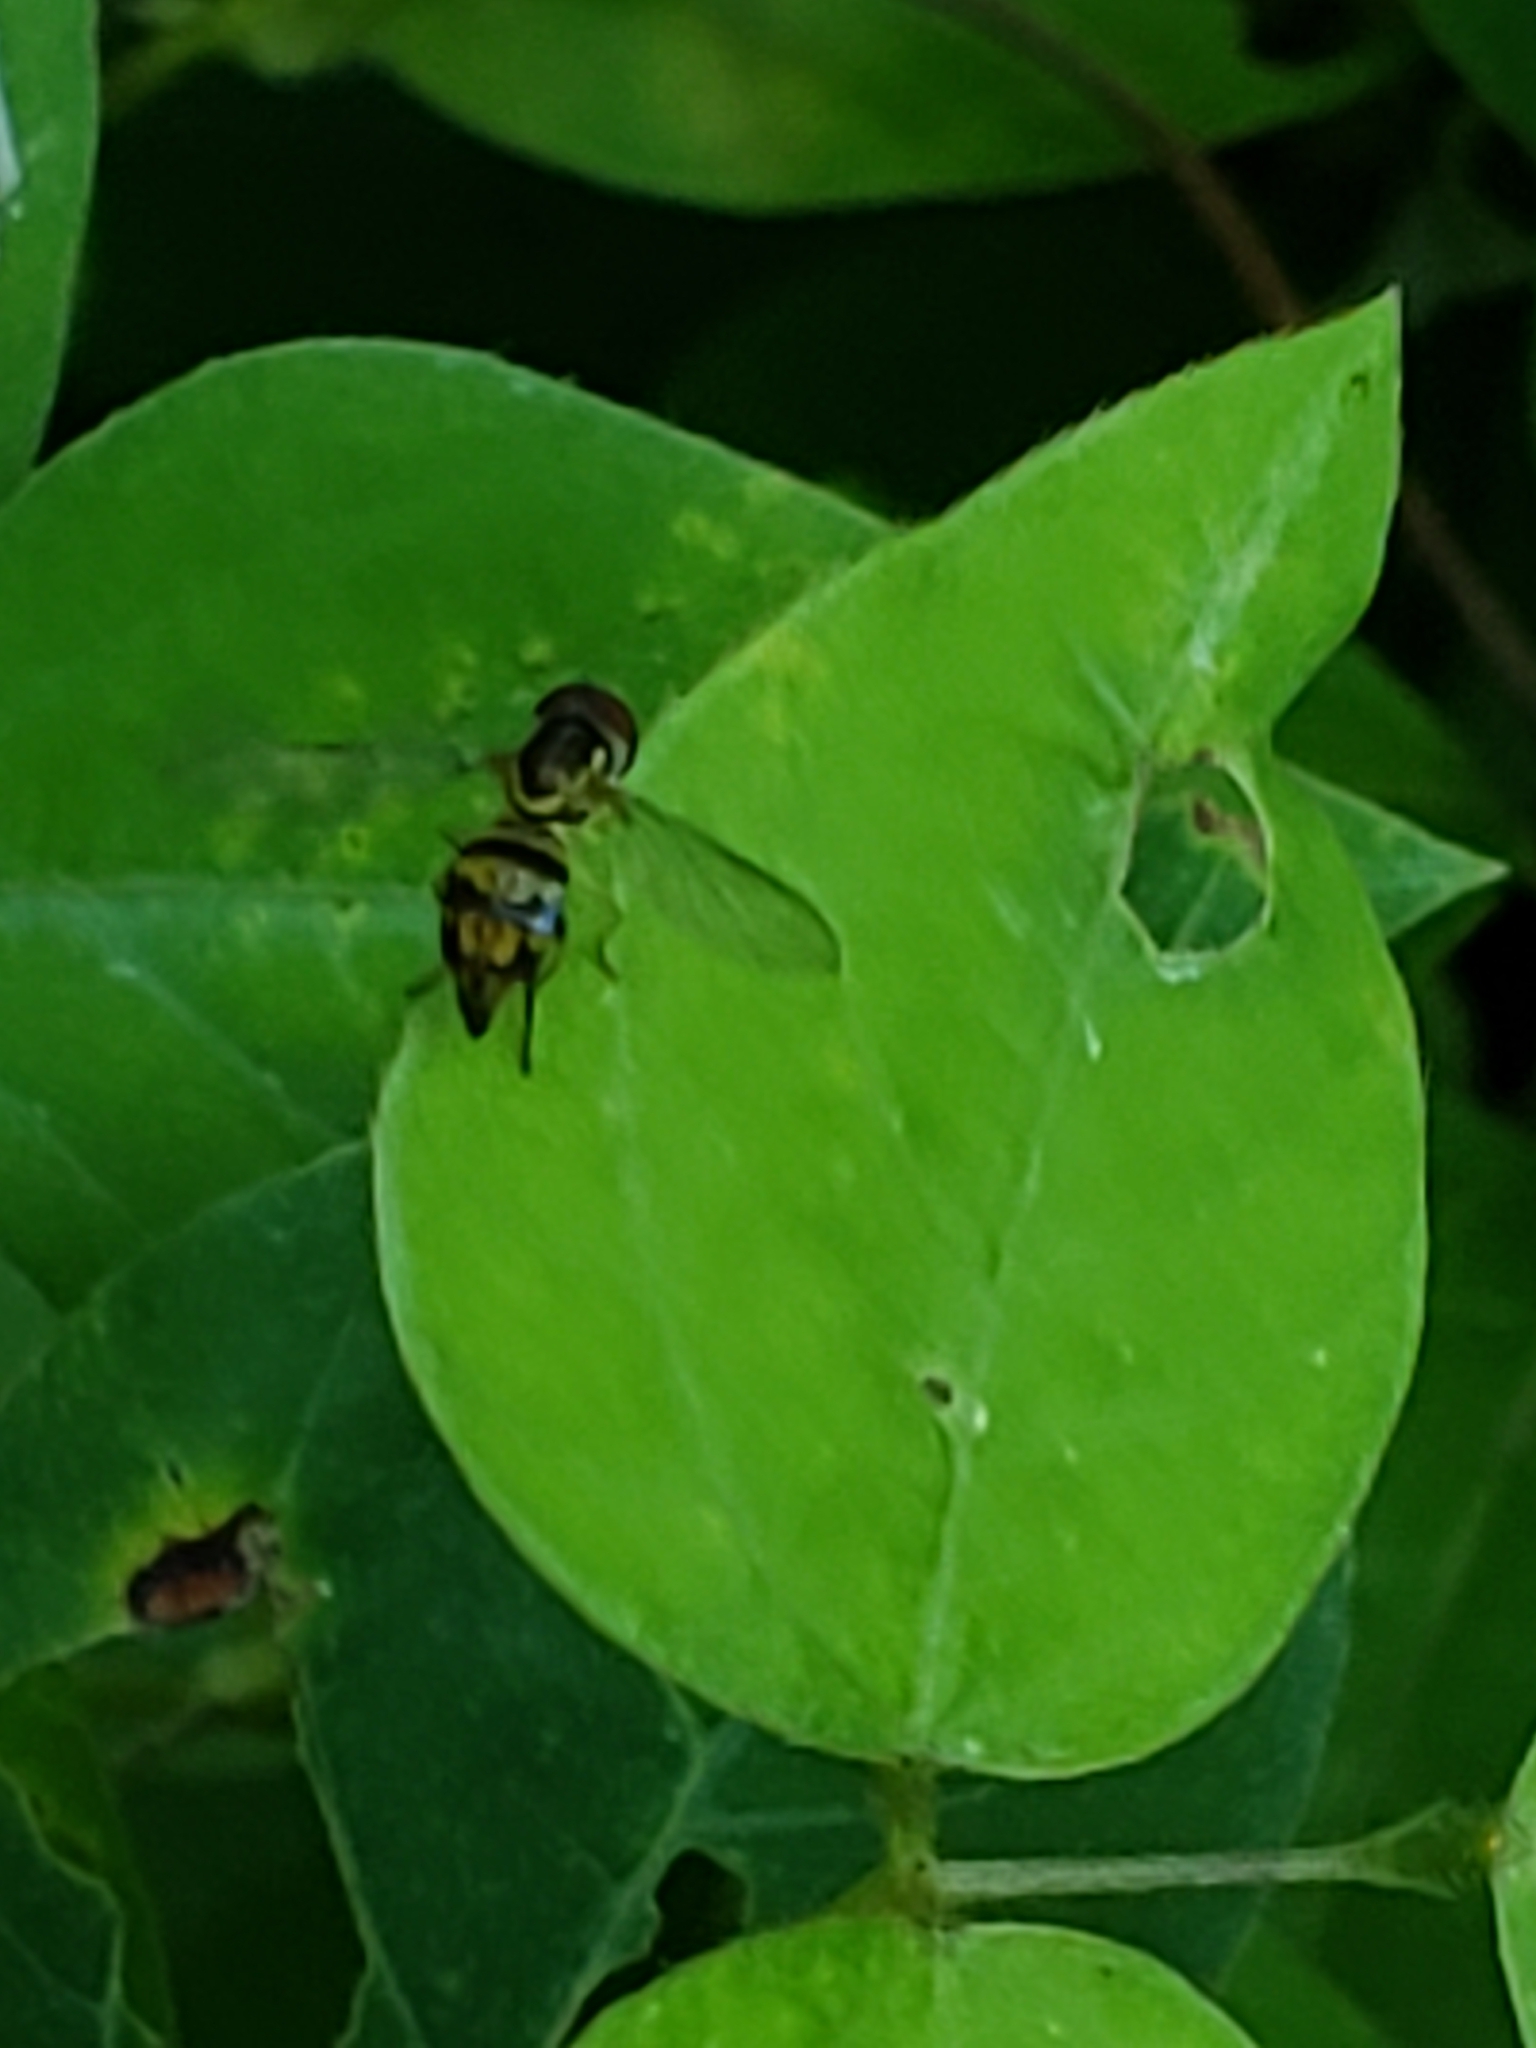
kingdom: Animalia
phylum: Arthropoda
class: Insecta
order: Diptera
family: Syrphidae
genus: Toxomerus
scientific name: Toxomerus geminatus
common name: Eastern calligrapher
